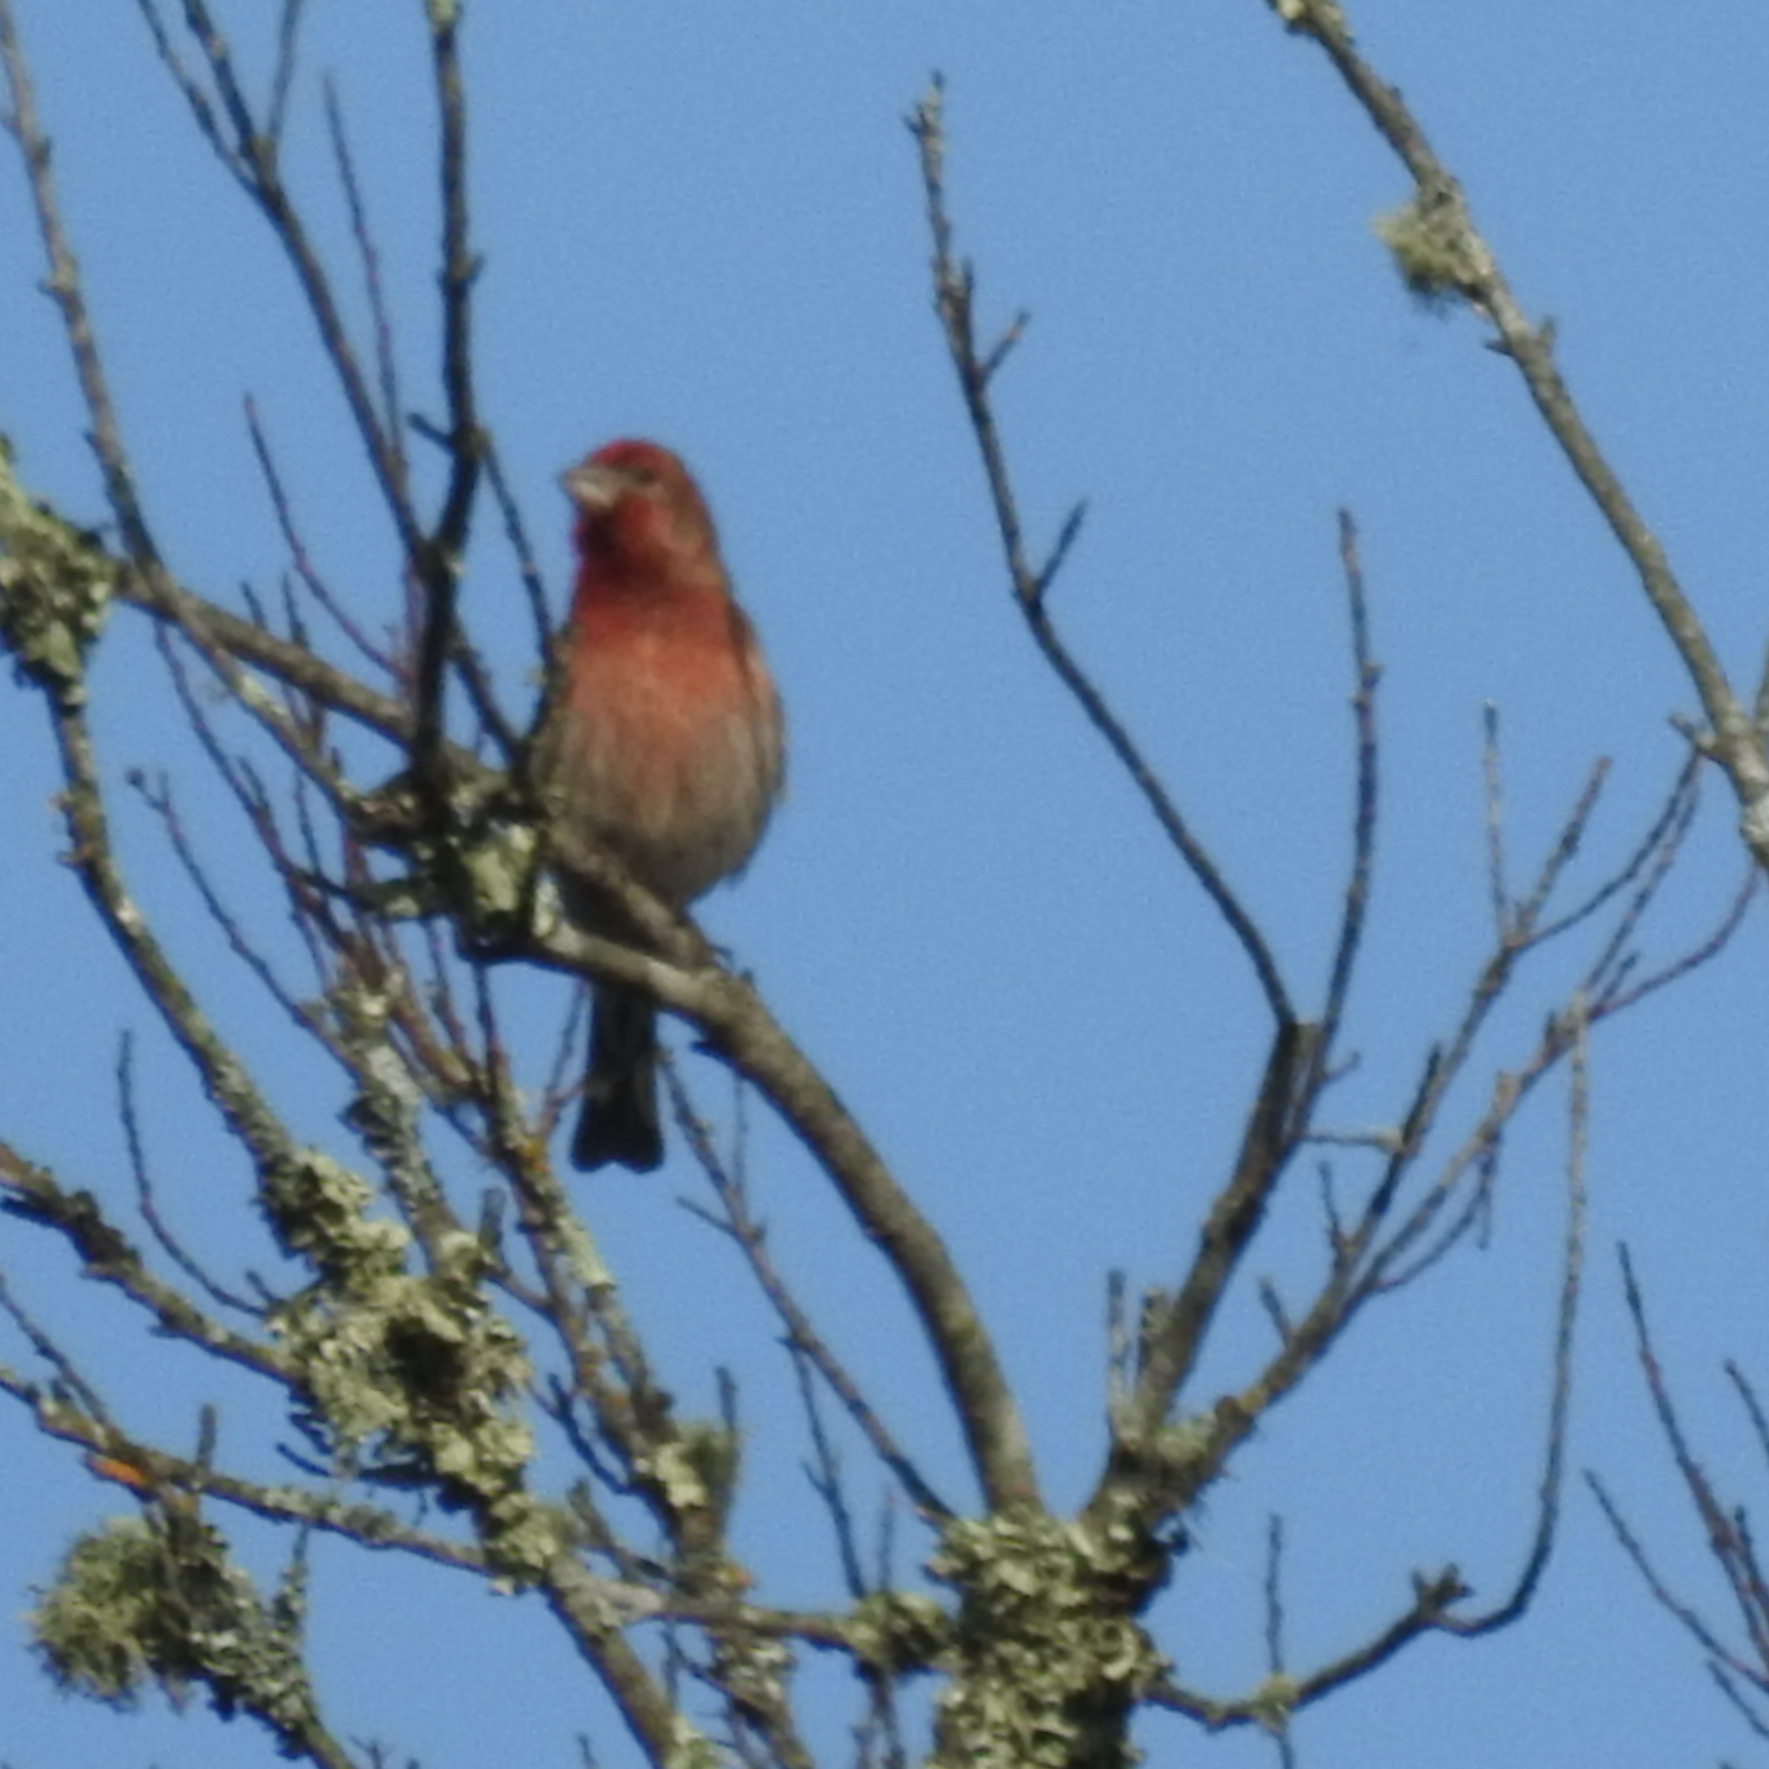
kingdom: Animalia
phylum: Chordata
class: Aves
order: Passeriformes
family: Fringillidae
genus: Haemorhous
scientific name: Haemorhous mexicanus
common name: House finch
